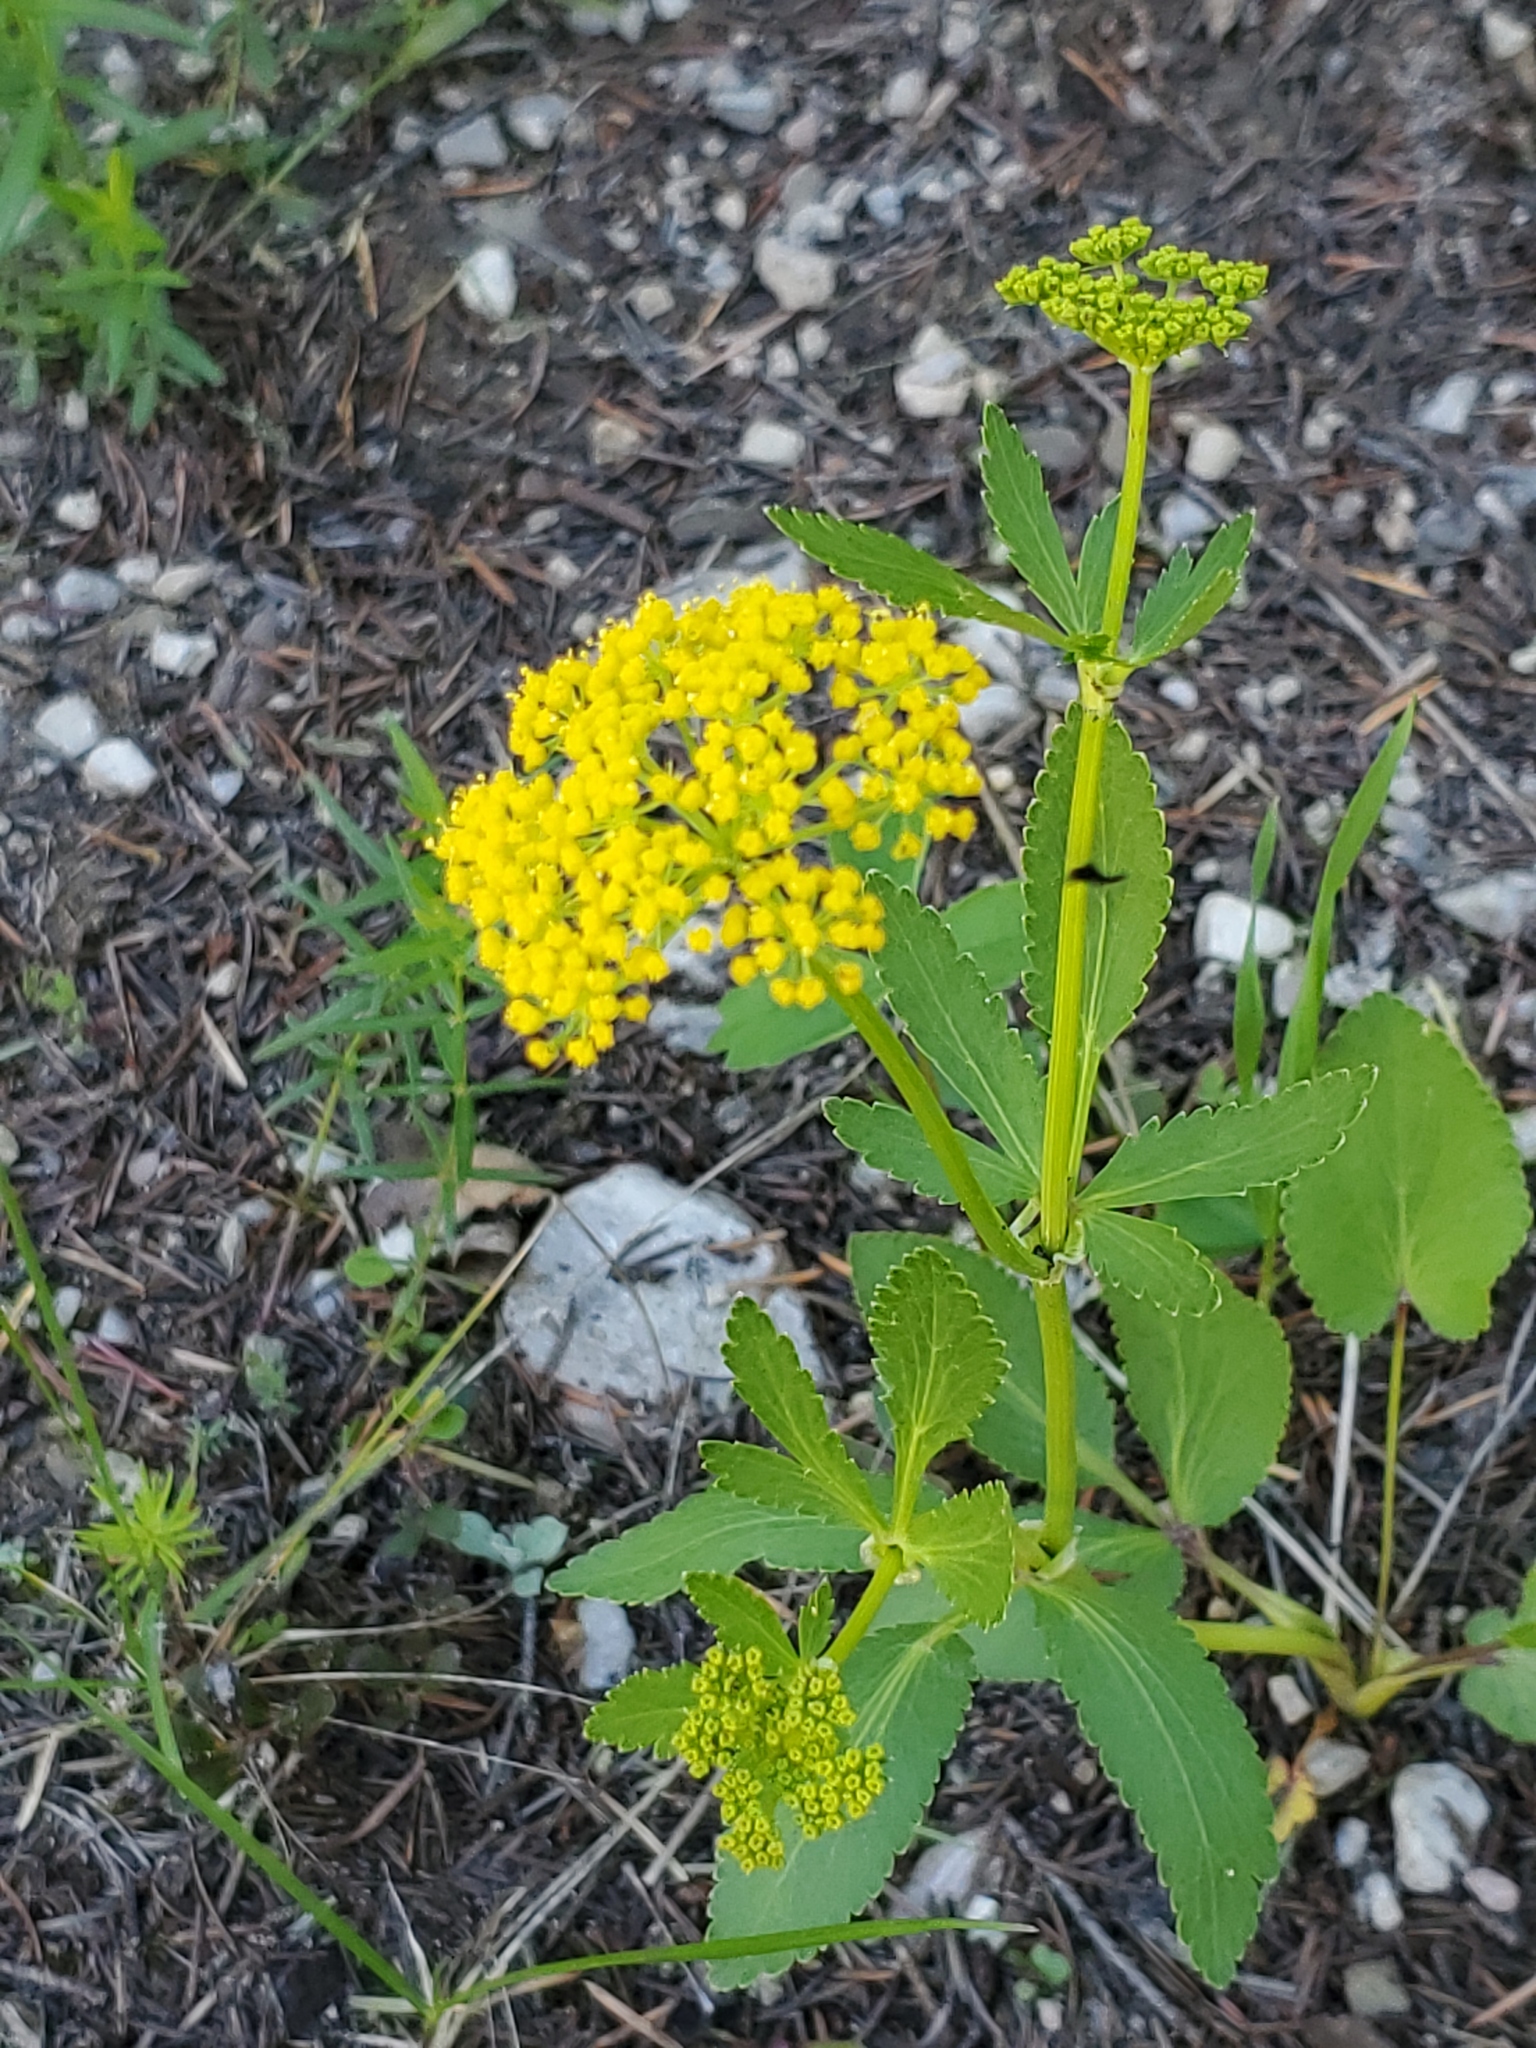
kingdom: Plantae
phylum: Tracheophyta
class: Magnoliopsida
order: Apiales
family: Apiaceae
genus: Zizia
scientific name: Zizia aptera
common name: Heart-leaved alexanders
